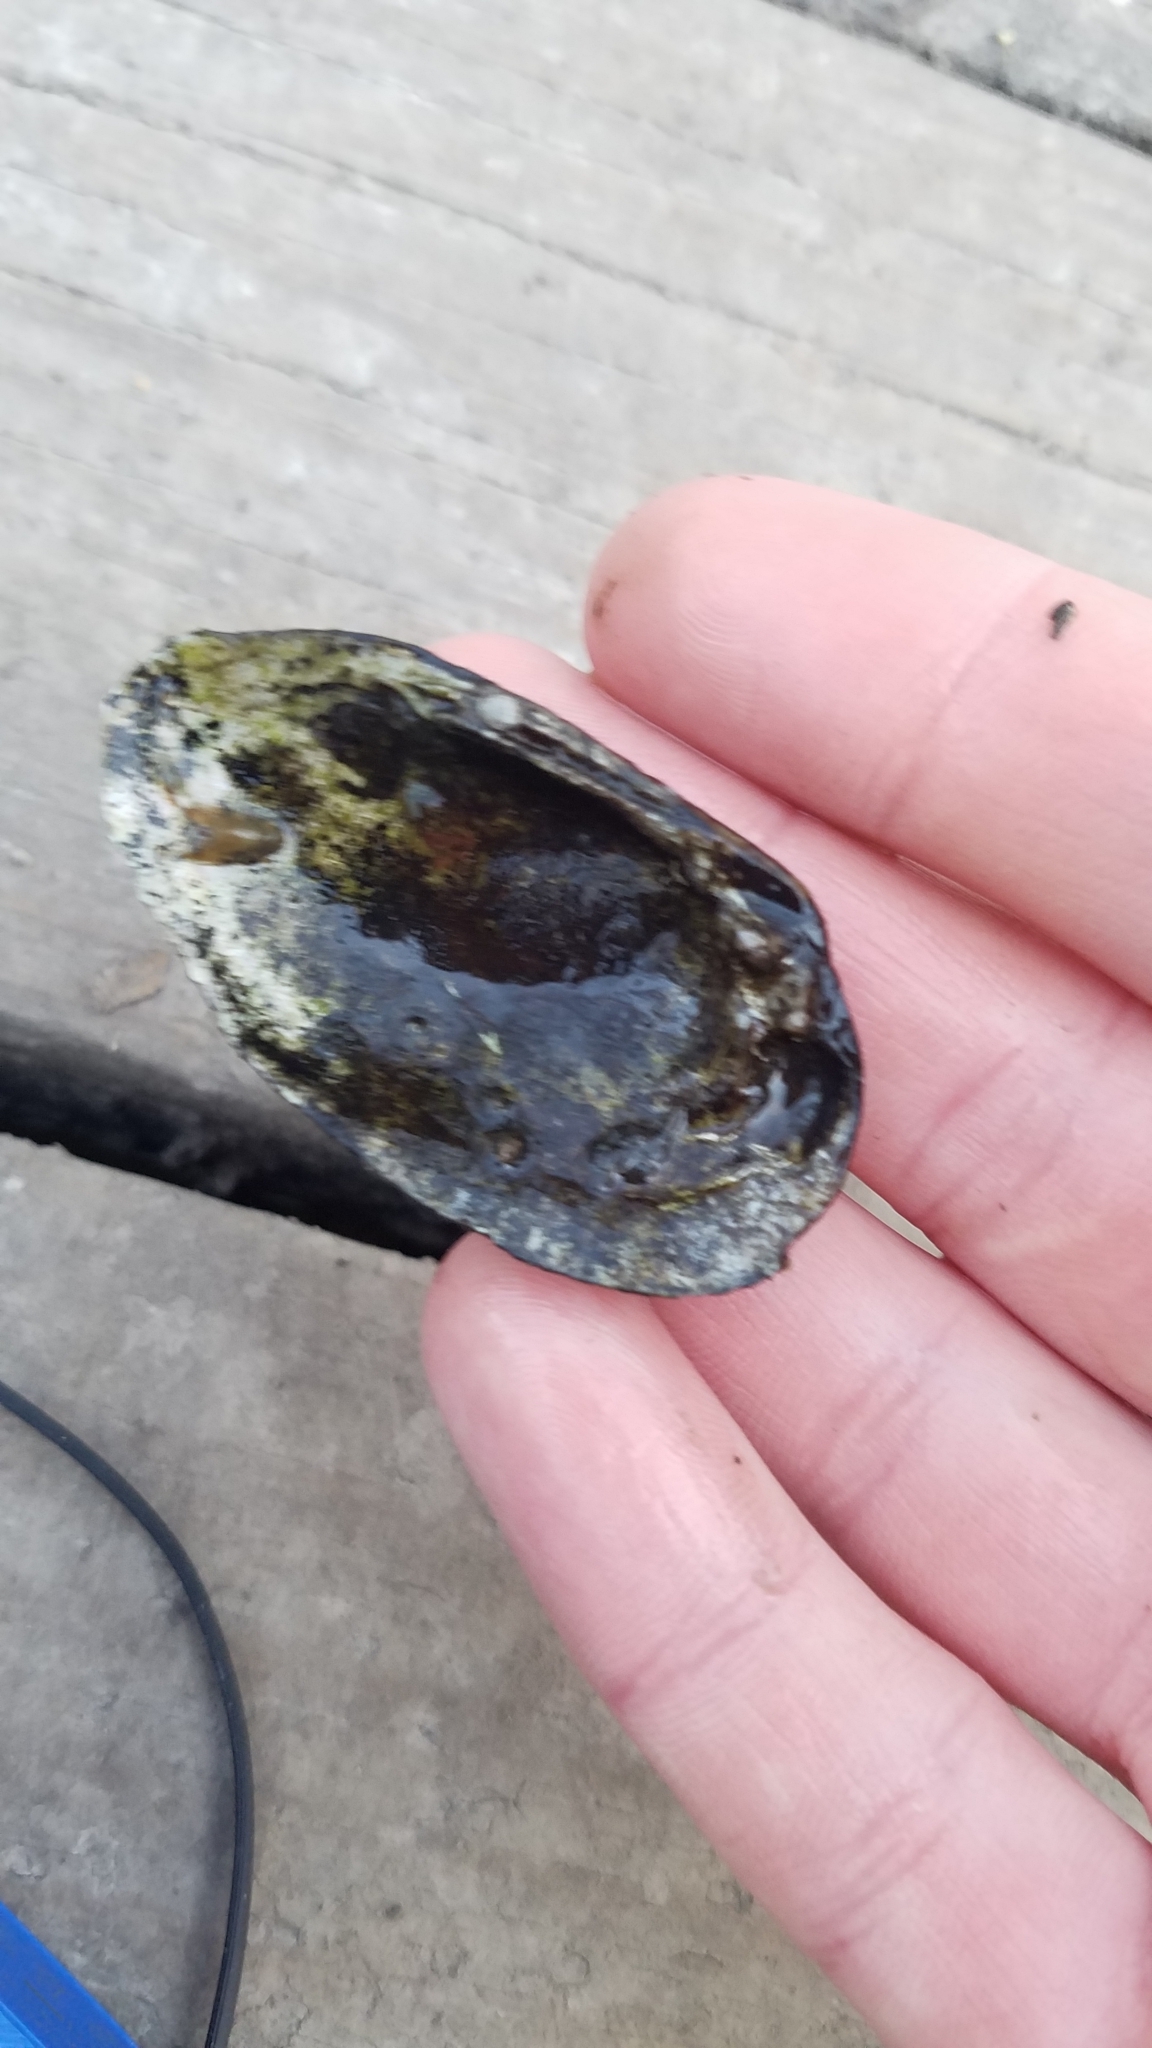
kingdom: Animalia
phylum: Mollusca
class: Bivalvia
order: Unionida
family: Unionidae
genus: Venustaconcha
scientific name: Venustaconcha ellipsiformis
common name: Ellipse
